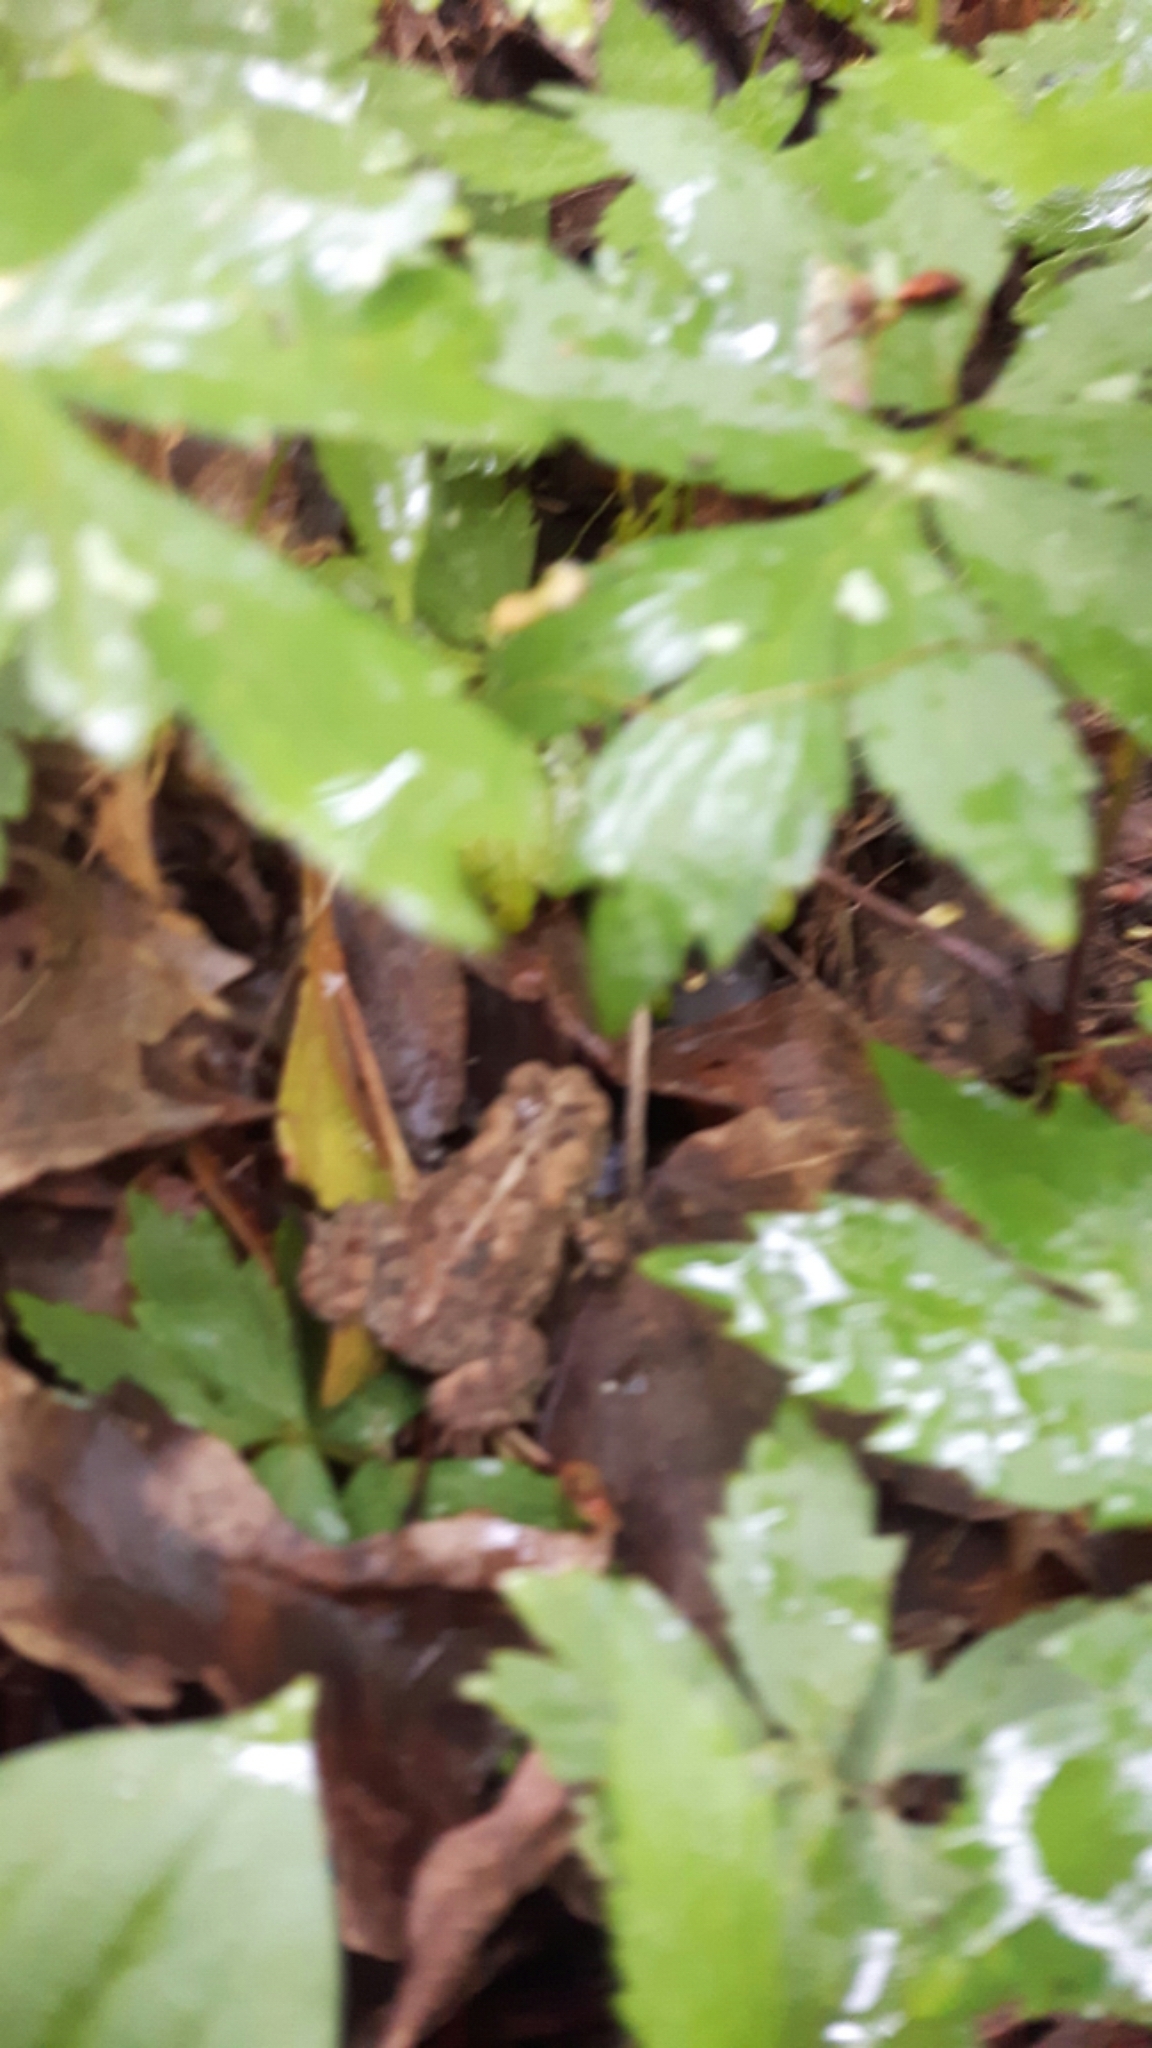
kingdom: Animalia
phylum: Chordata
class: Amphibia
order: Anura
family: Bufonidae
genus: Anaxyrus
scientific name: Anaxyrus americanus
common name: American toad
